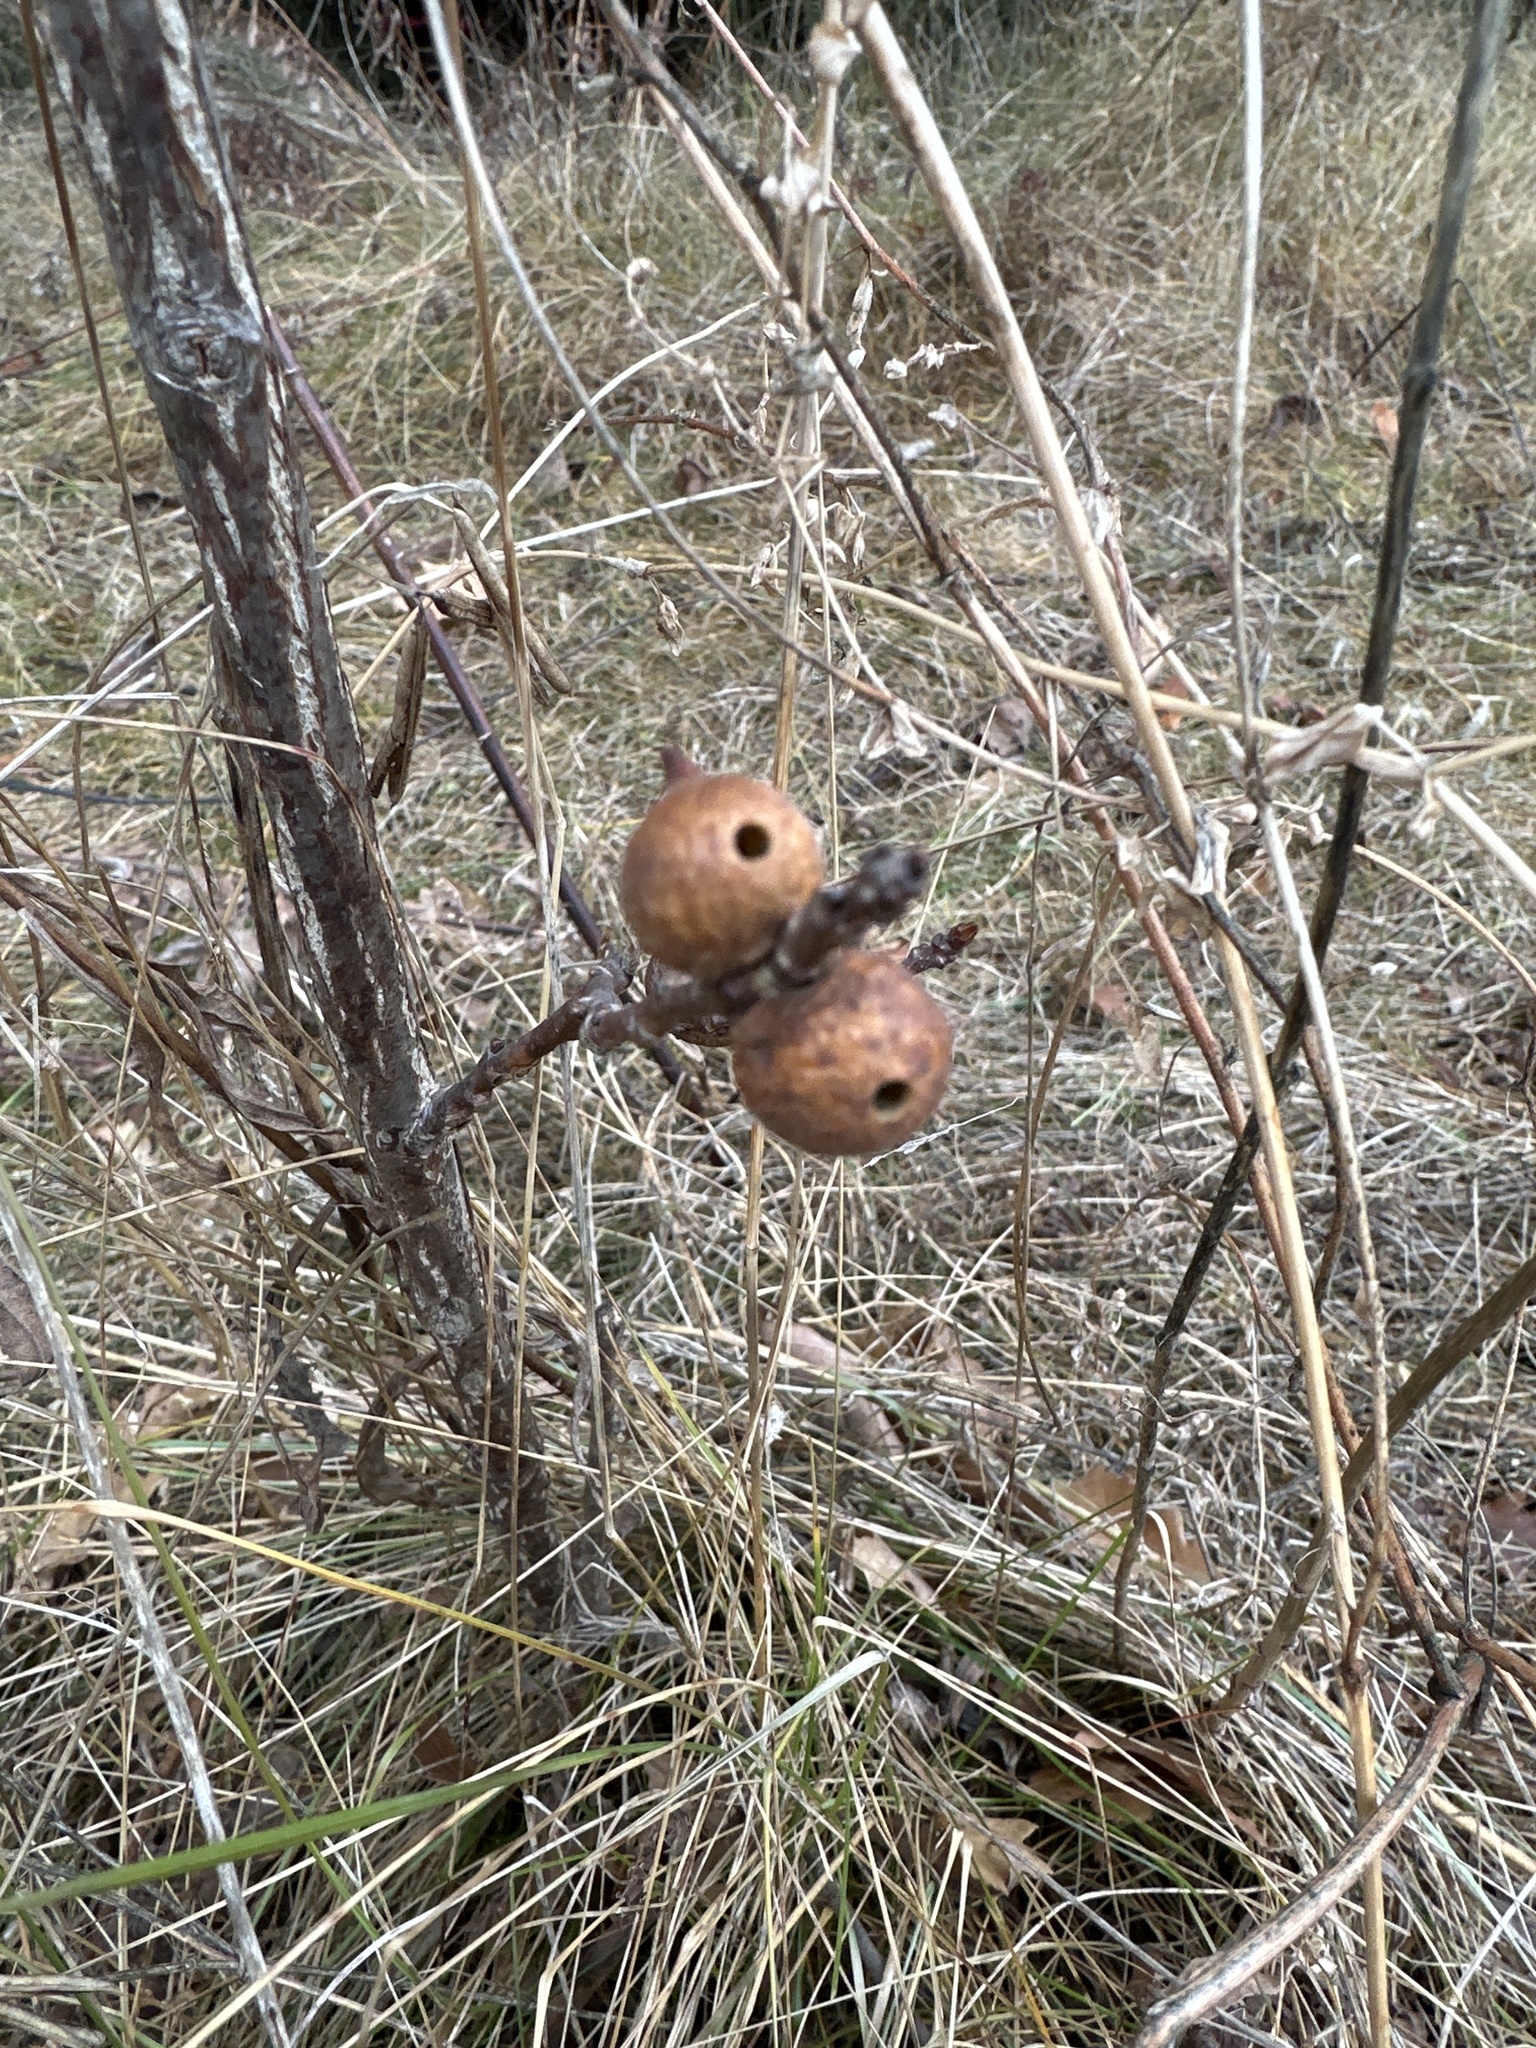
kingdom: Animalia
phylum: Arthropoda
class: Insecta
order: Hymenoptera
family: Cynipidae
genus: Disholcaspis
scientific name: Disholcaspis
